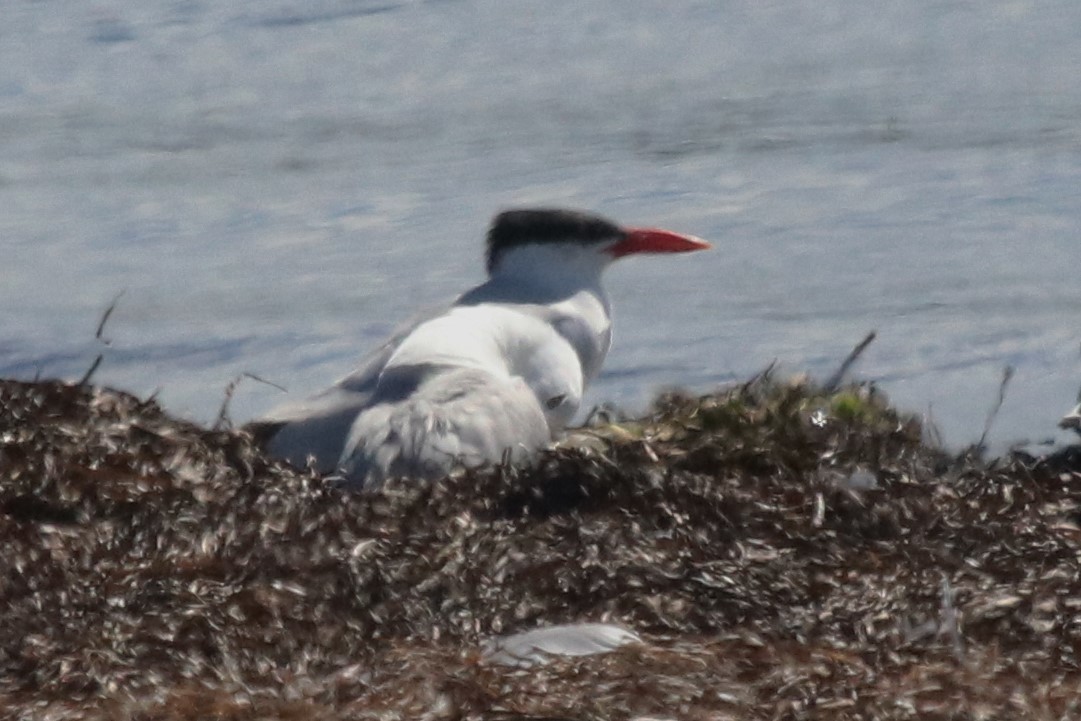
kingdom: Animalia
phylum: Chordata
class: Aves
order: Charadriiformes
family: Laridae
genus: Hydroprogne
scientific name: Hydroprogne caspia
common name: Caspian tern
